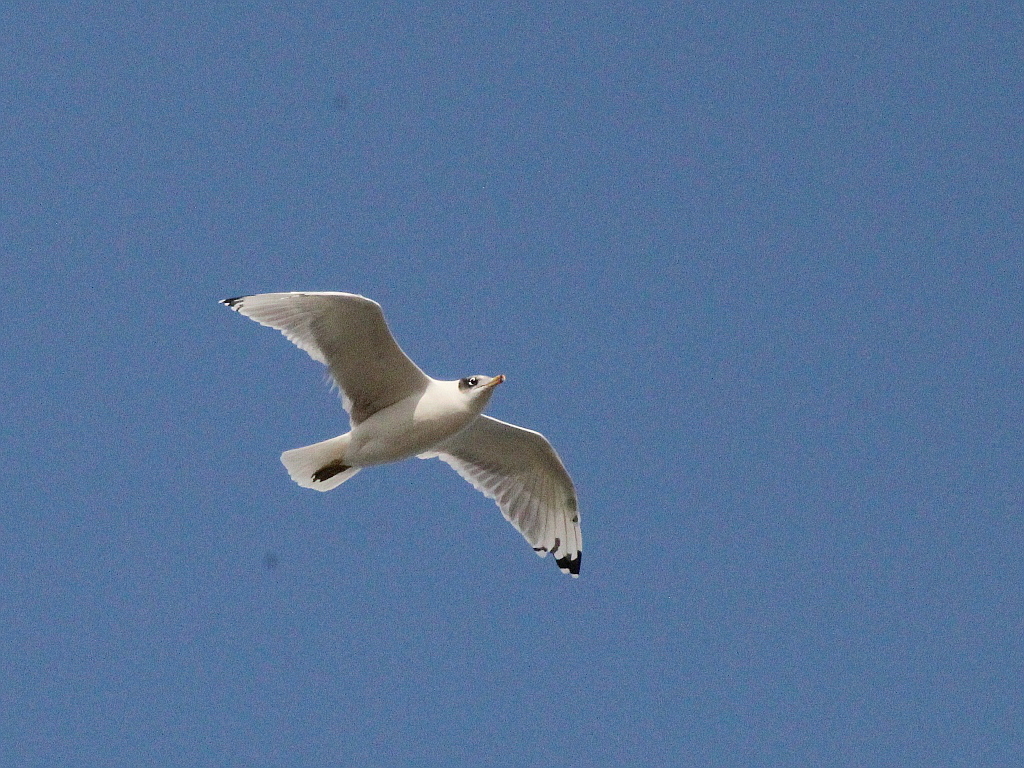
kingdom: Animalia
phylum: Chordata
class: Aves
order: Charadriiformes
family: Laridae
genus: Ichthyaetus
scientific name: Ichthyaetus ichthyaetus
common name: Pallas's gull
